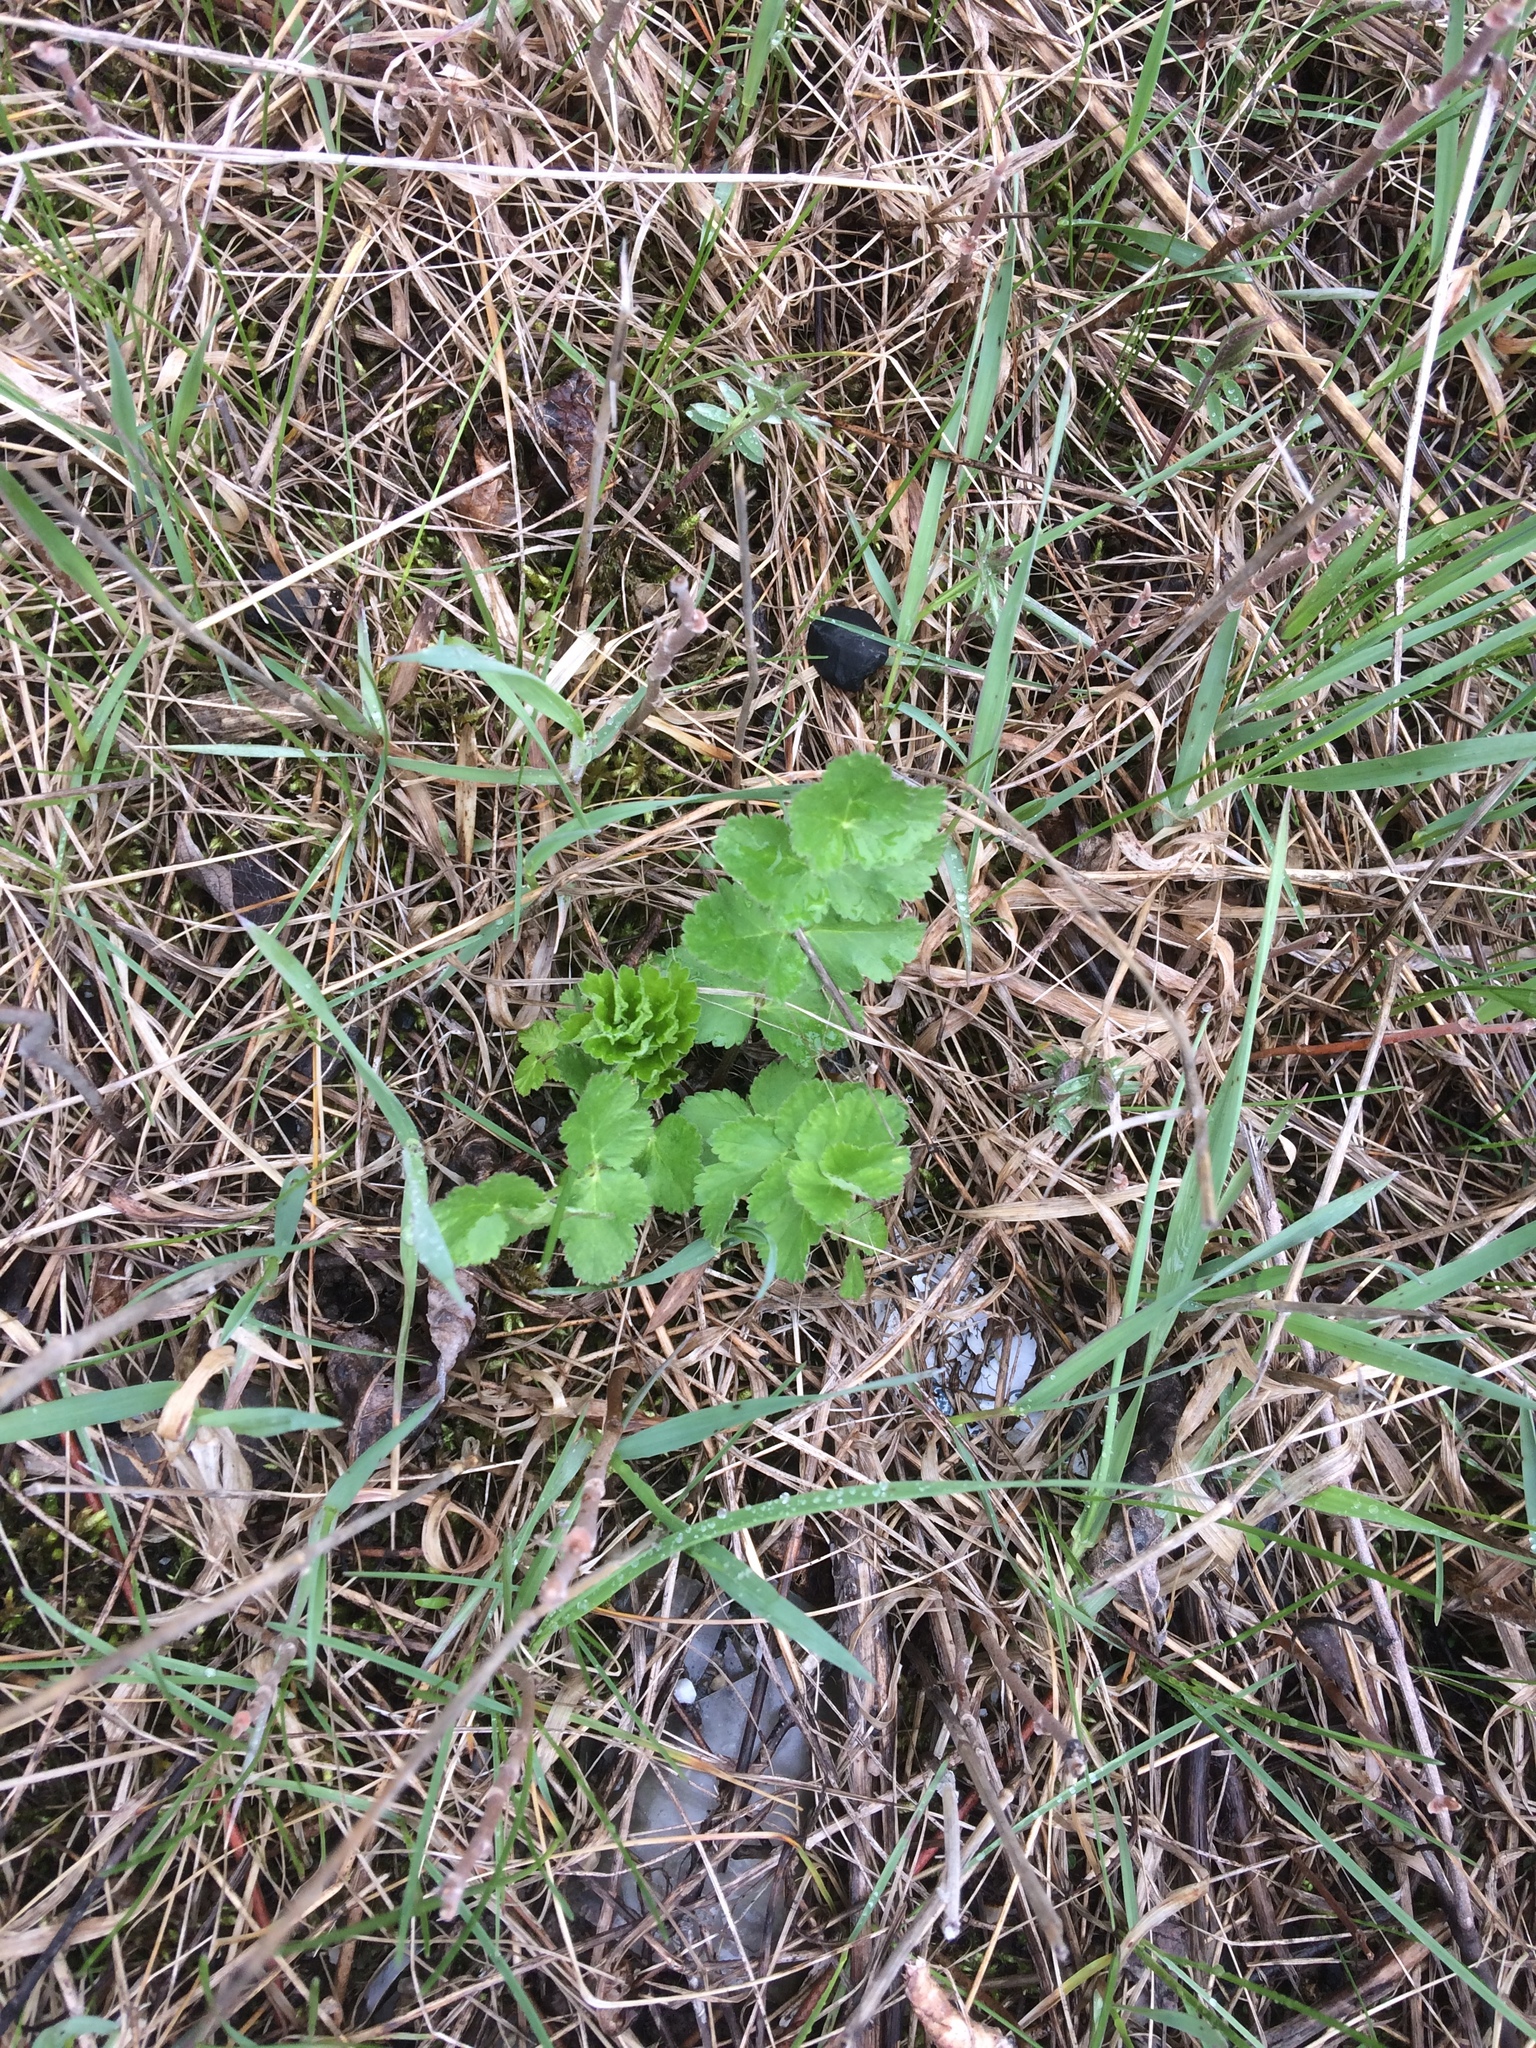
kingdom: Plantae
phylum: Tracheophyta
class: Magnoliopsida
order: Apiales
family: Apiaceae
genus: Pastinaca
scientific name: Pastinaca sativa
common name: Wild parsnip
